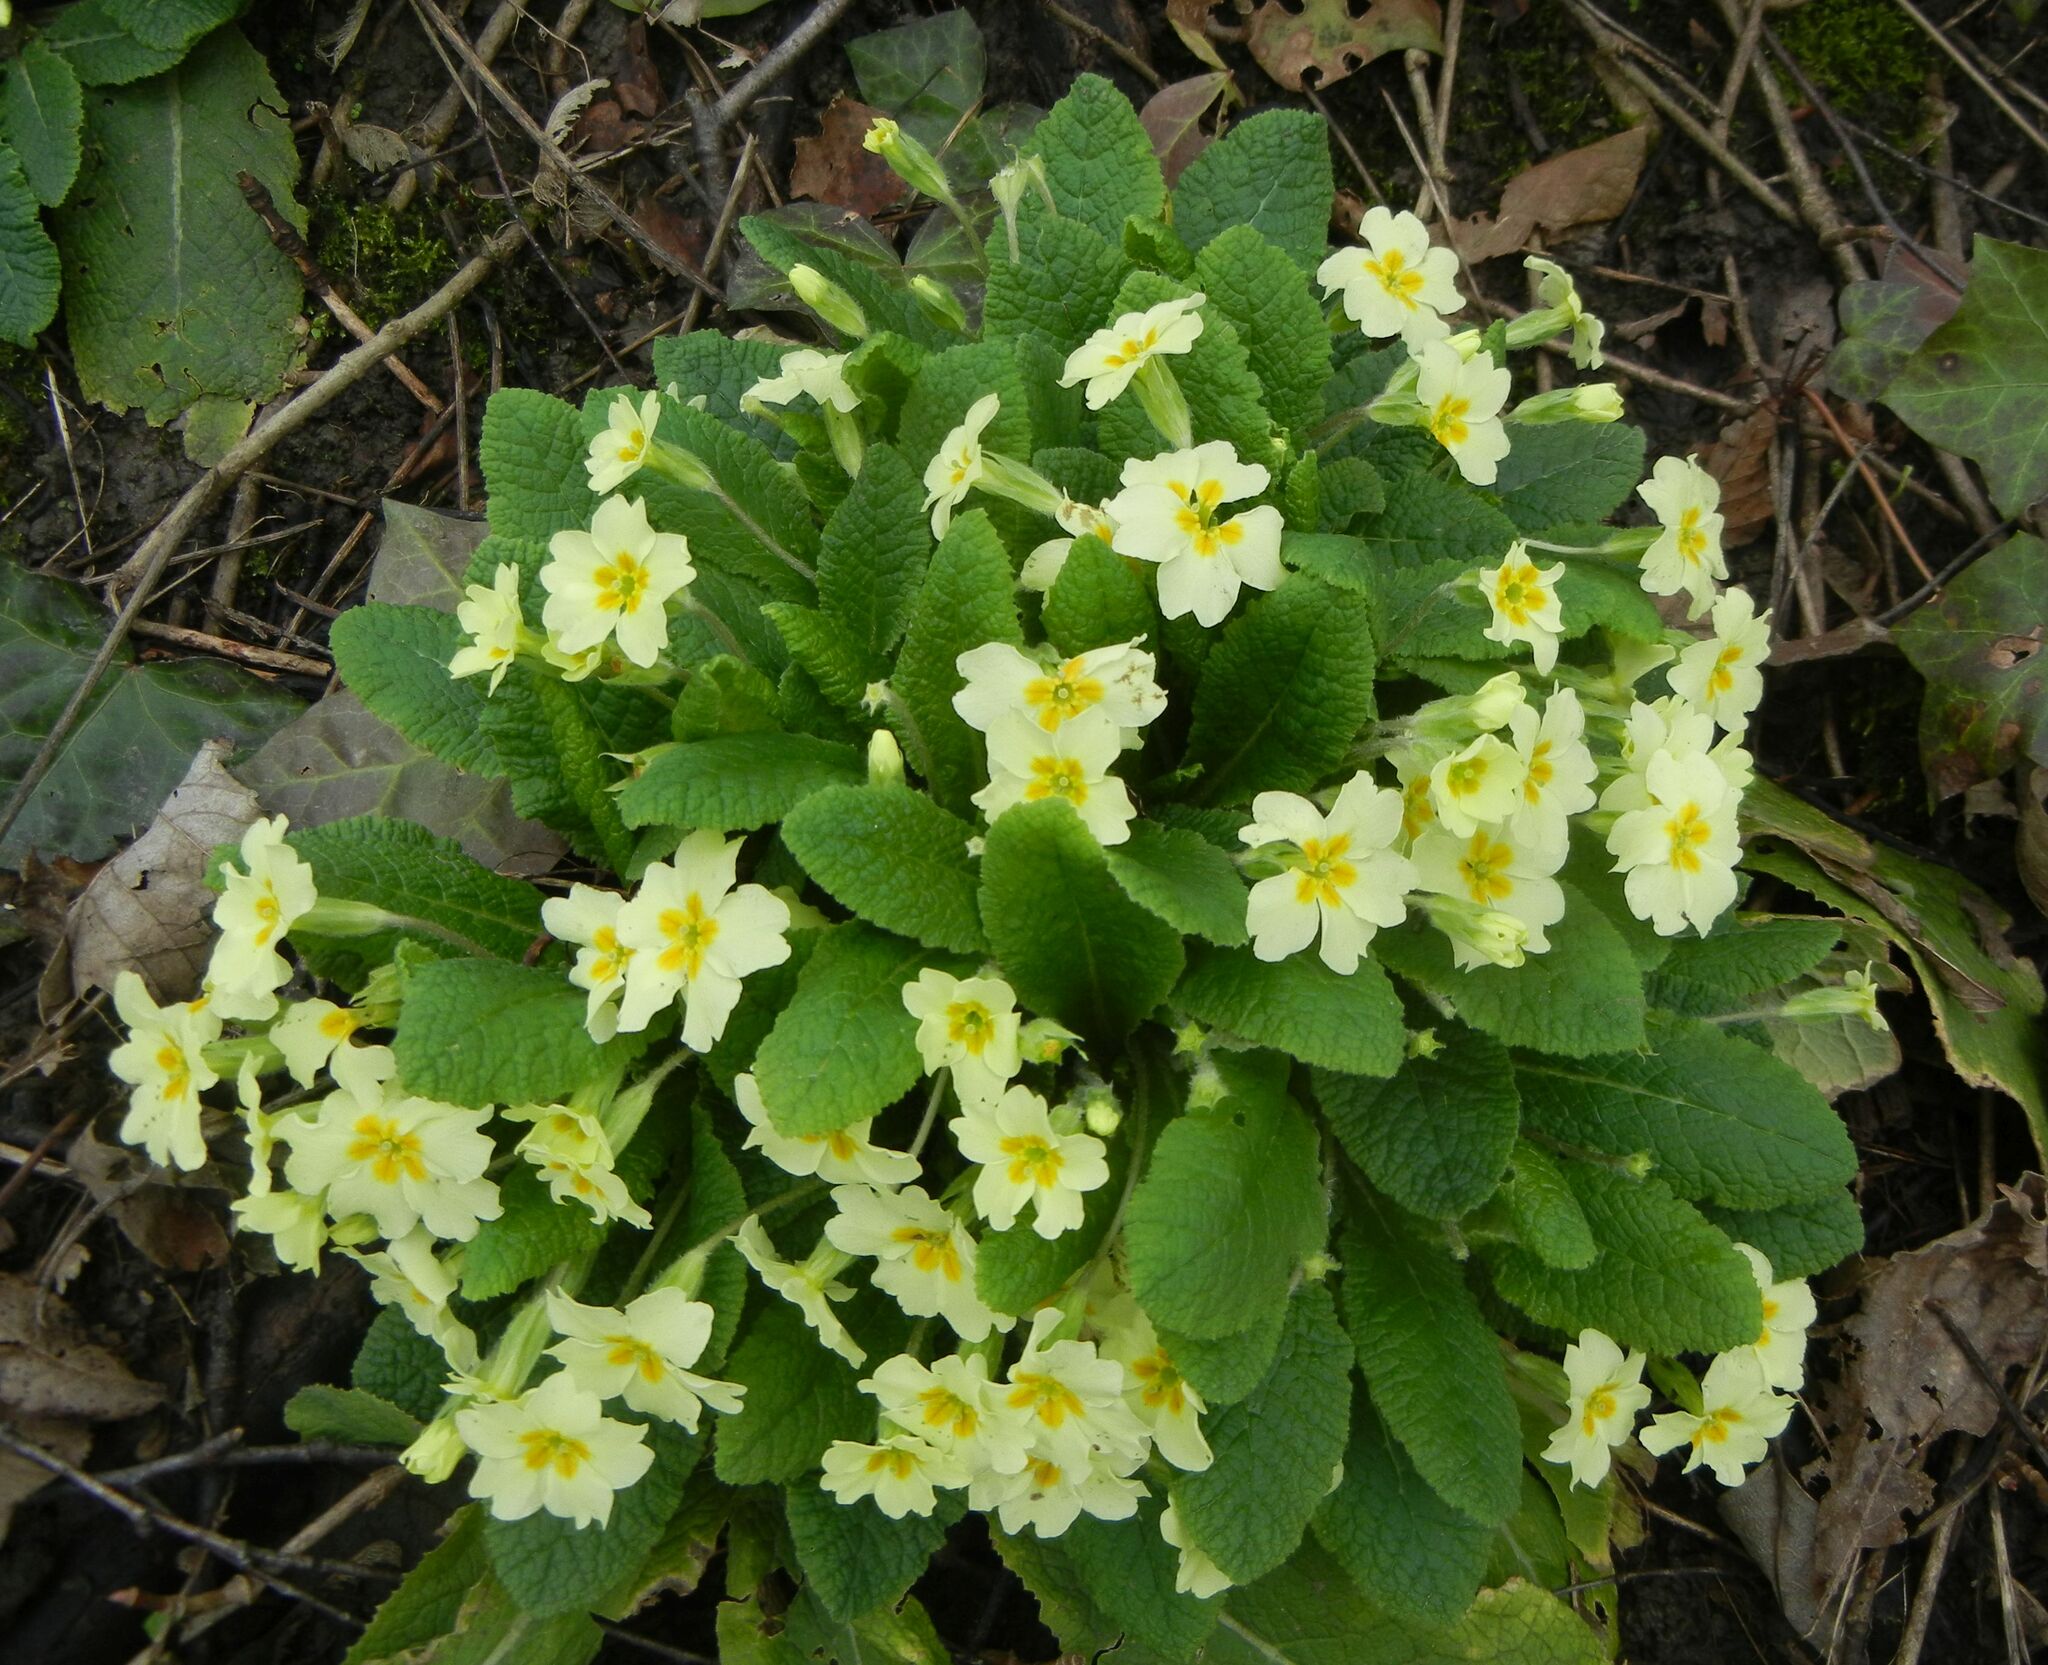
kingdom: Plantae
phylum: Tracheophyta
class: Magnoliopsida
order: Ericales
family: Primulaceae
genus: Primula
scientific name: Primula vulgaris
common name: Primrose
